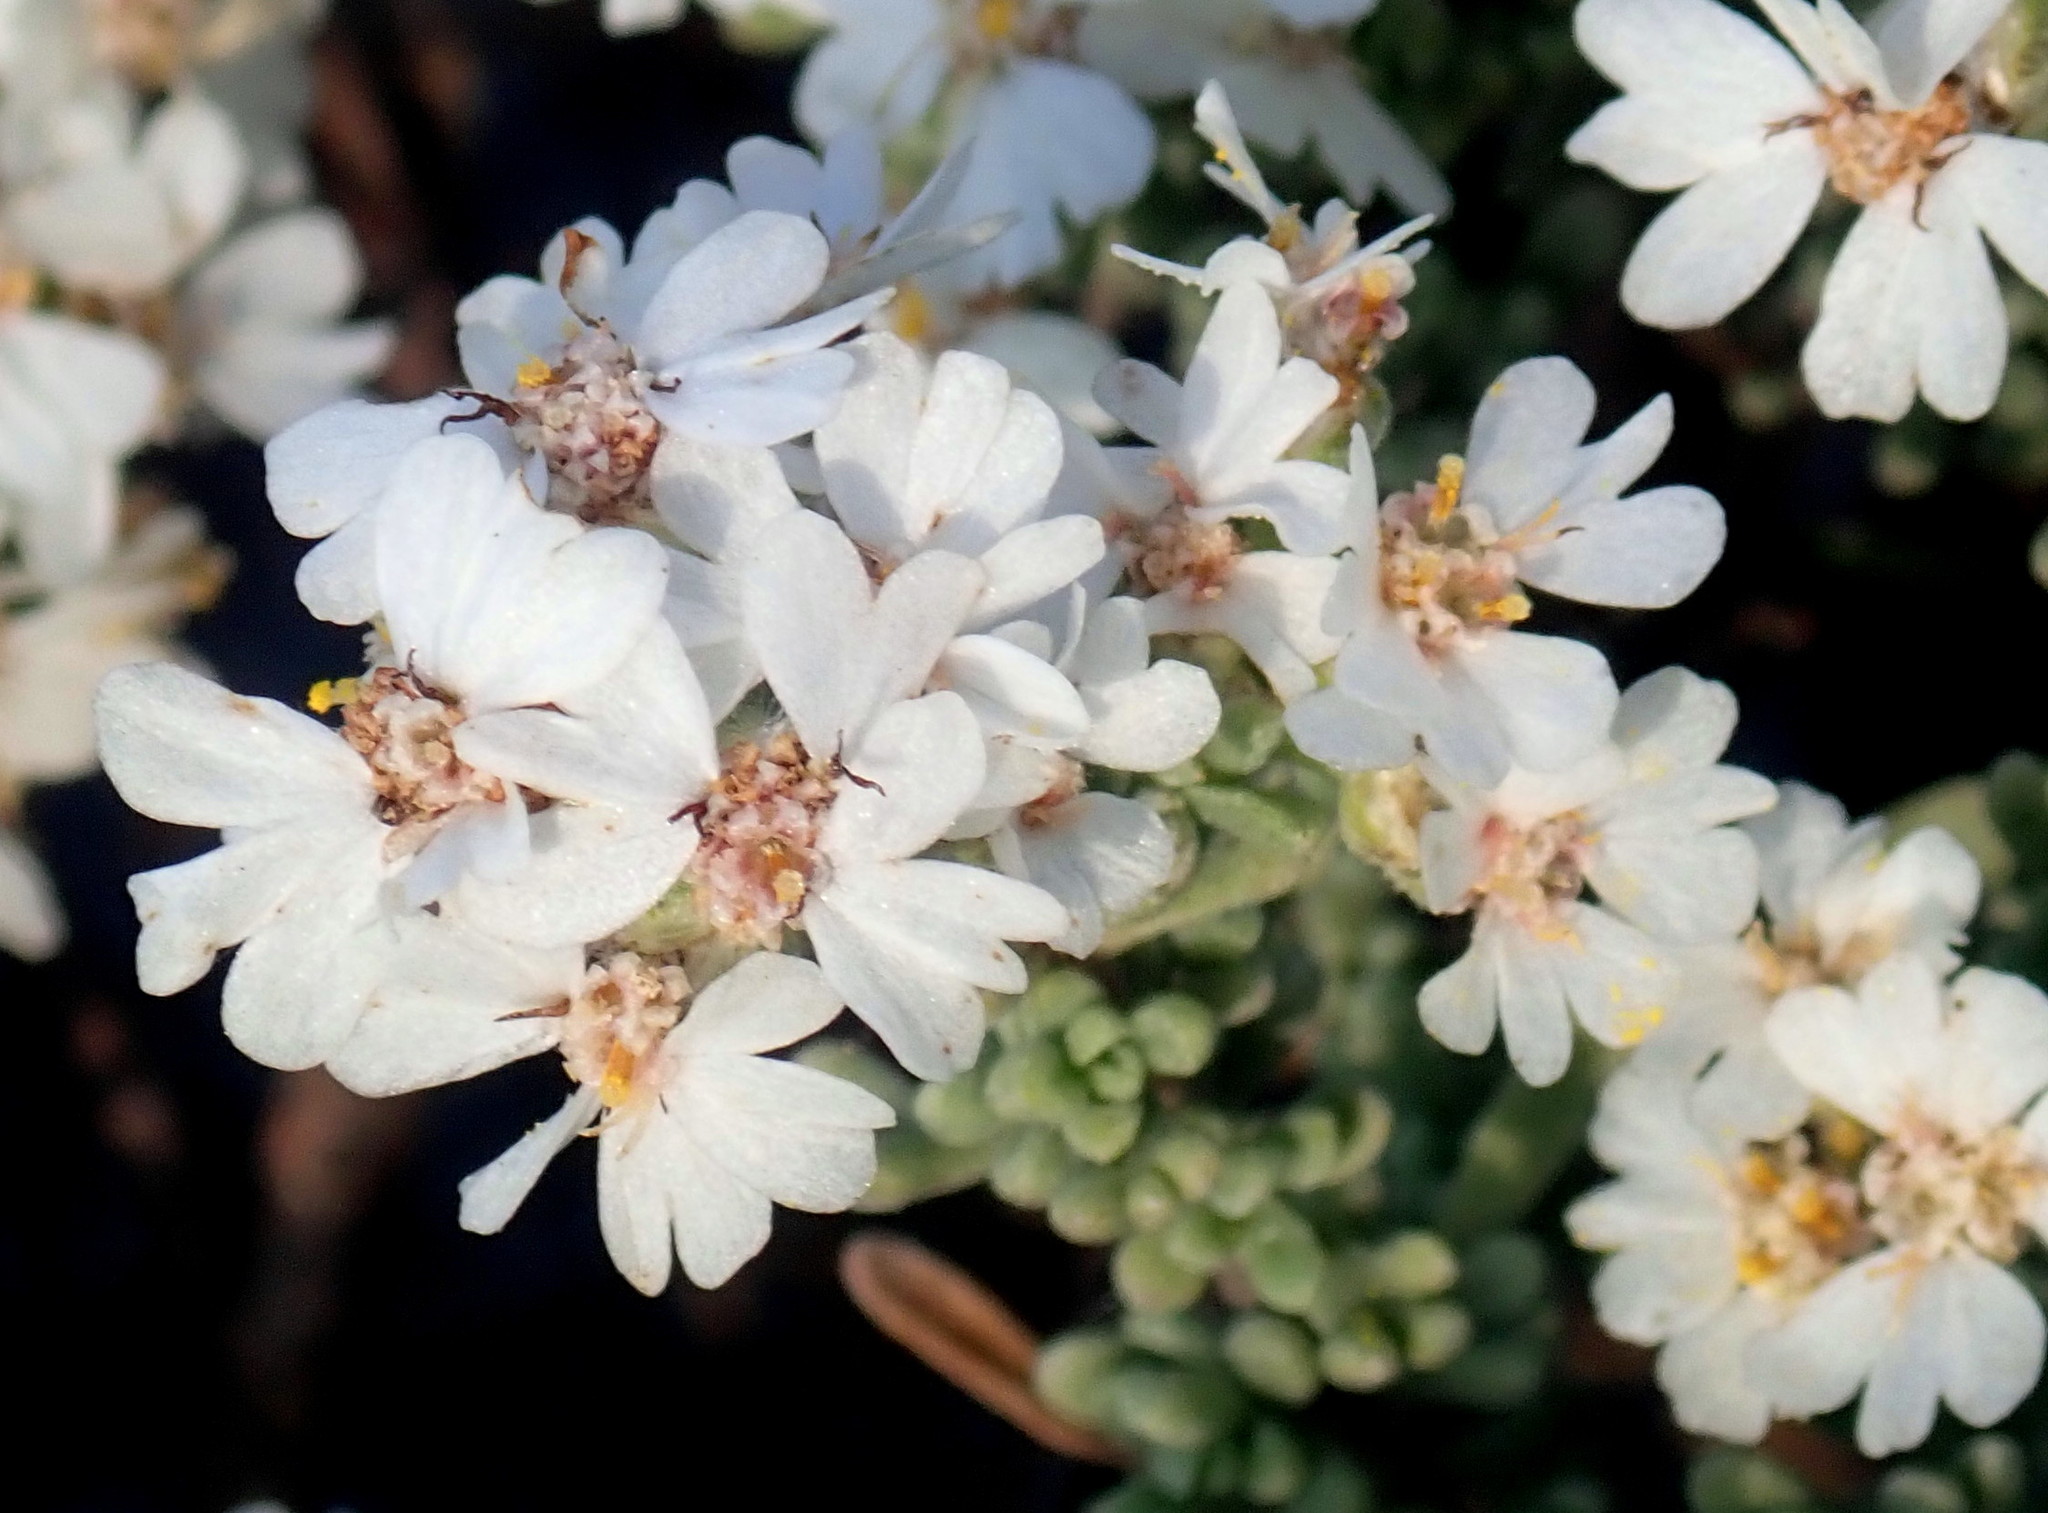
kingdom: Plantae
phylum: Tracheophyta
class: Magnoliopsida
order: Asterales
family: Asteraceae
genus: Eriocephalus
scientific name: Eriocephalus africanus
